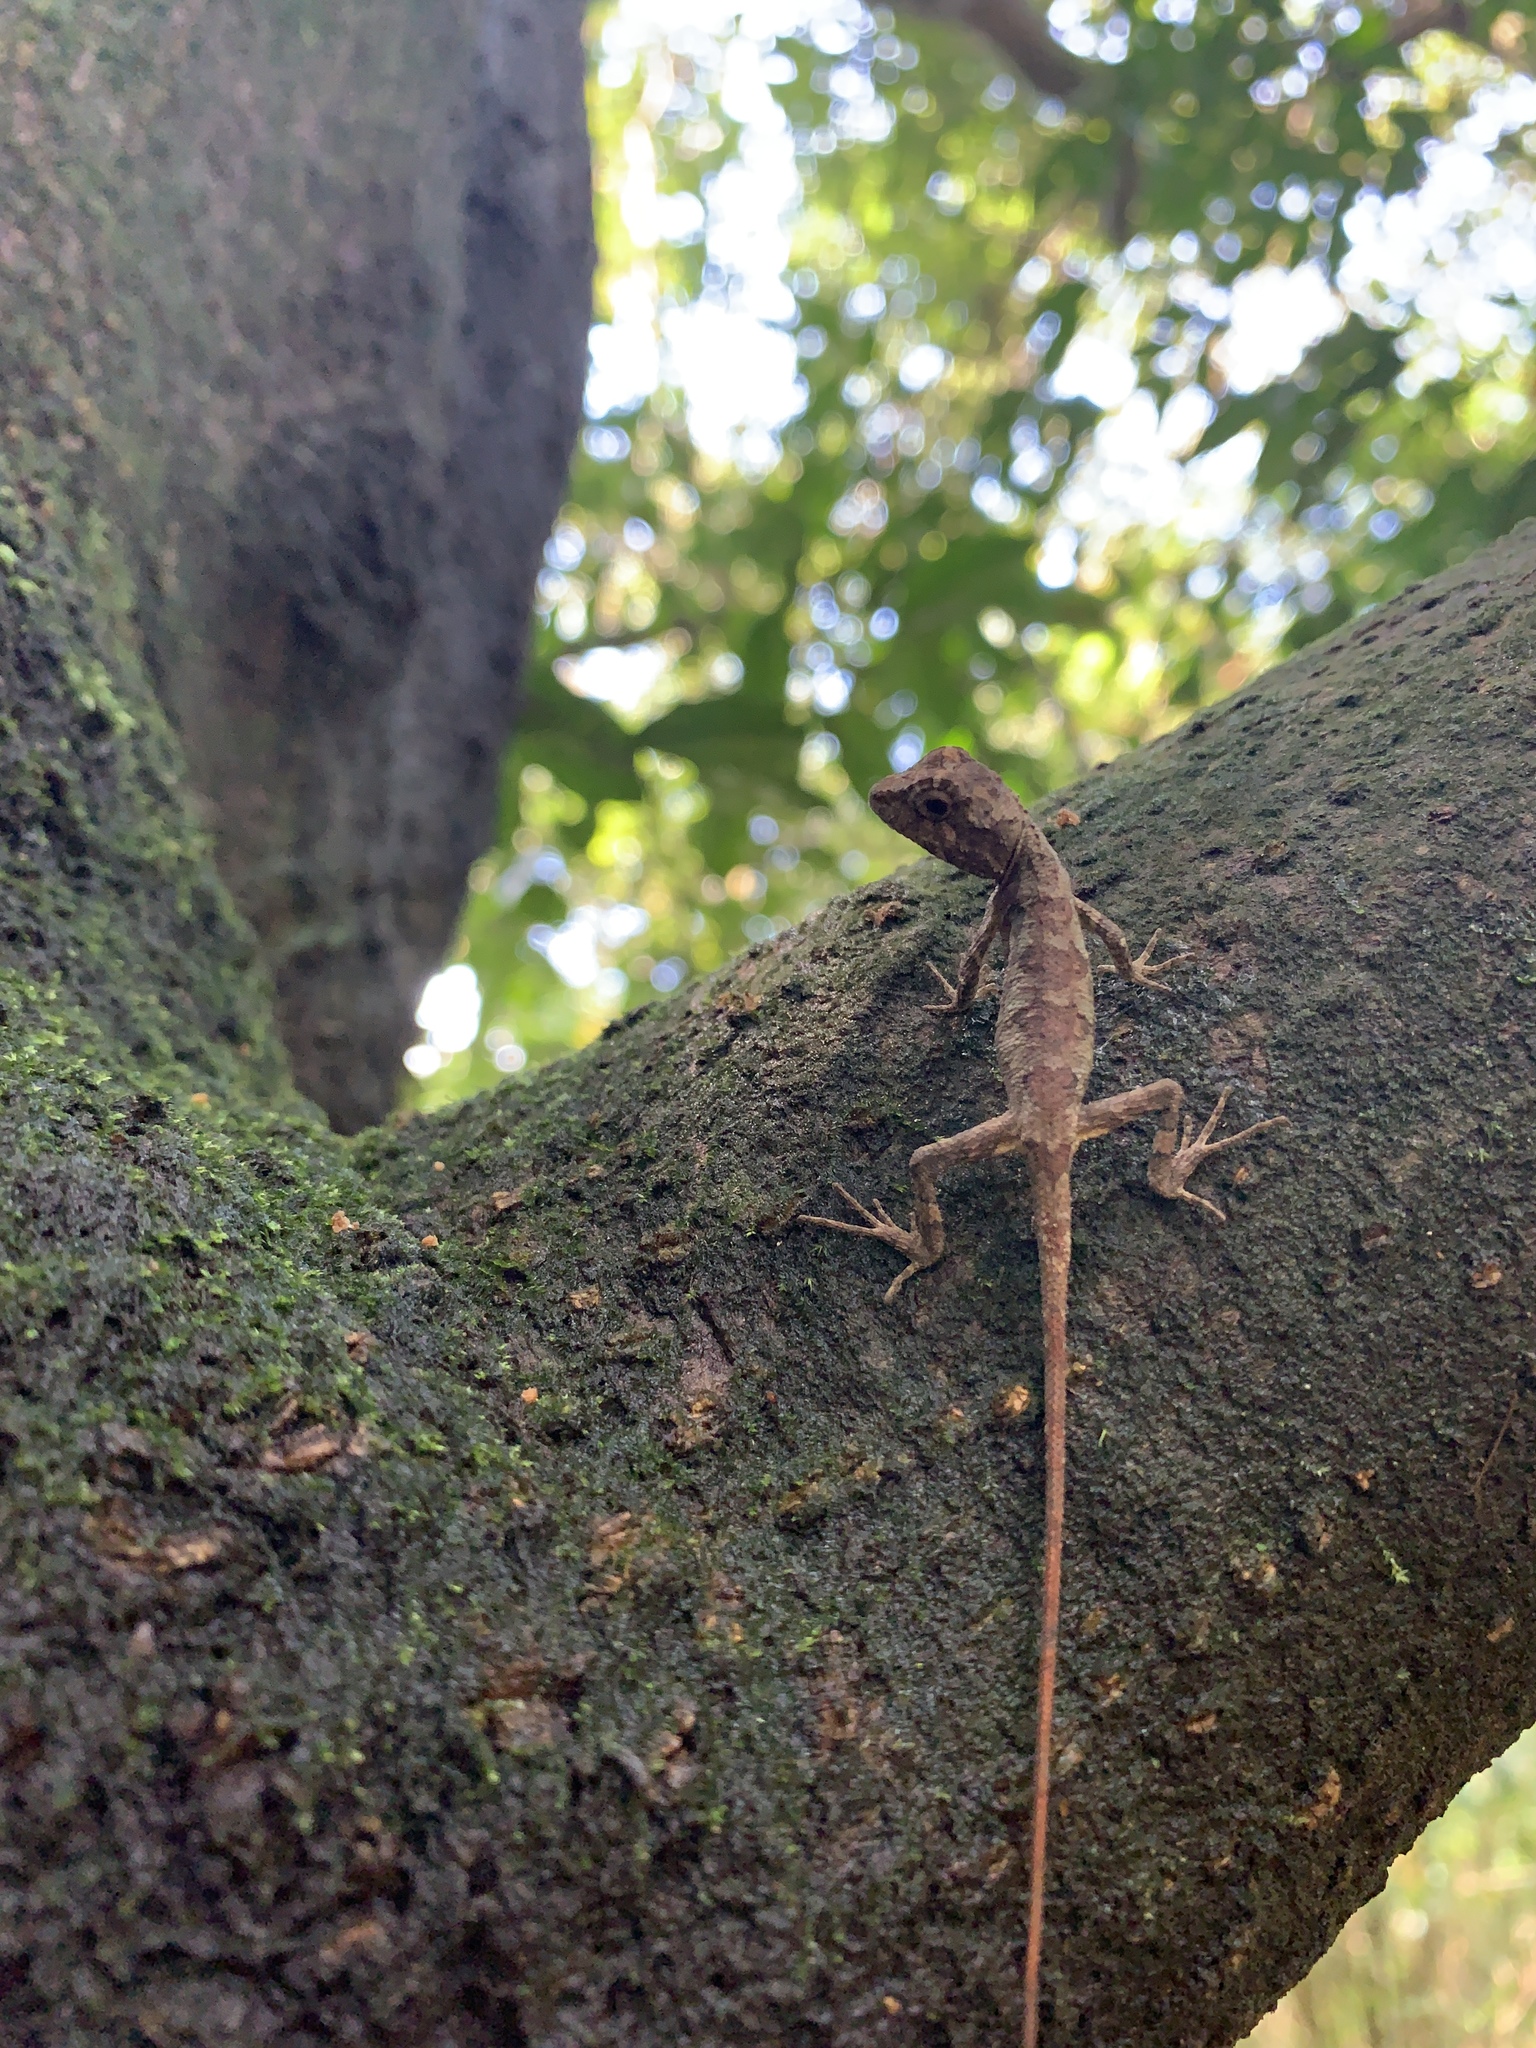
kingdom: Fungi
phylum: Basidiomycota
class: Agaricomycetes
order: Boletales
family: Diplocystidiaceae
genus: Diploderma
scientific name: Diploderma polygonatum
